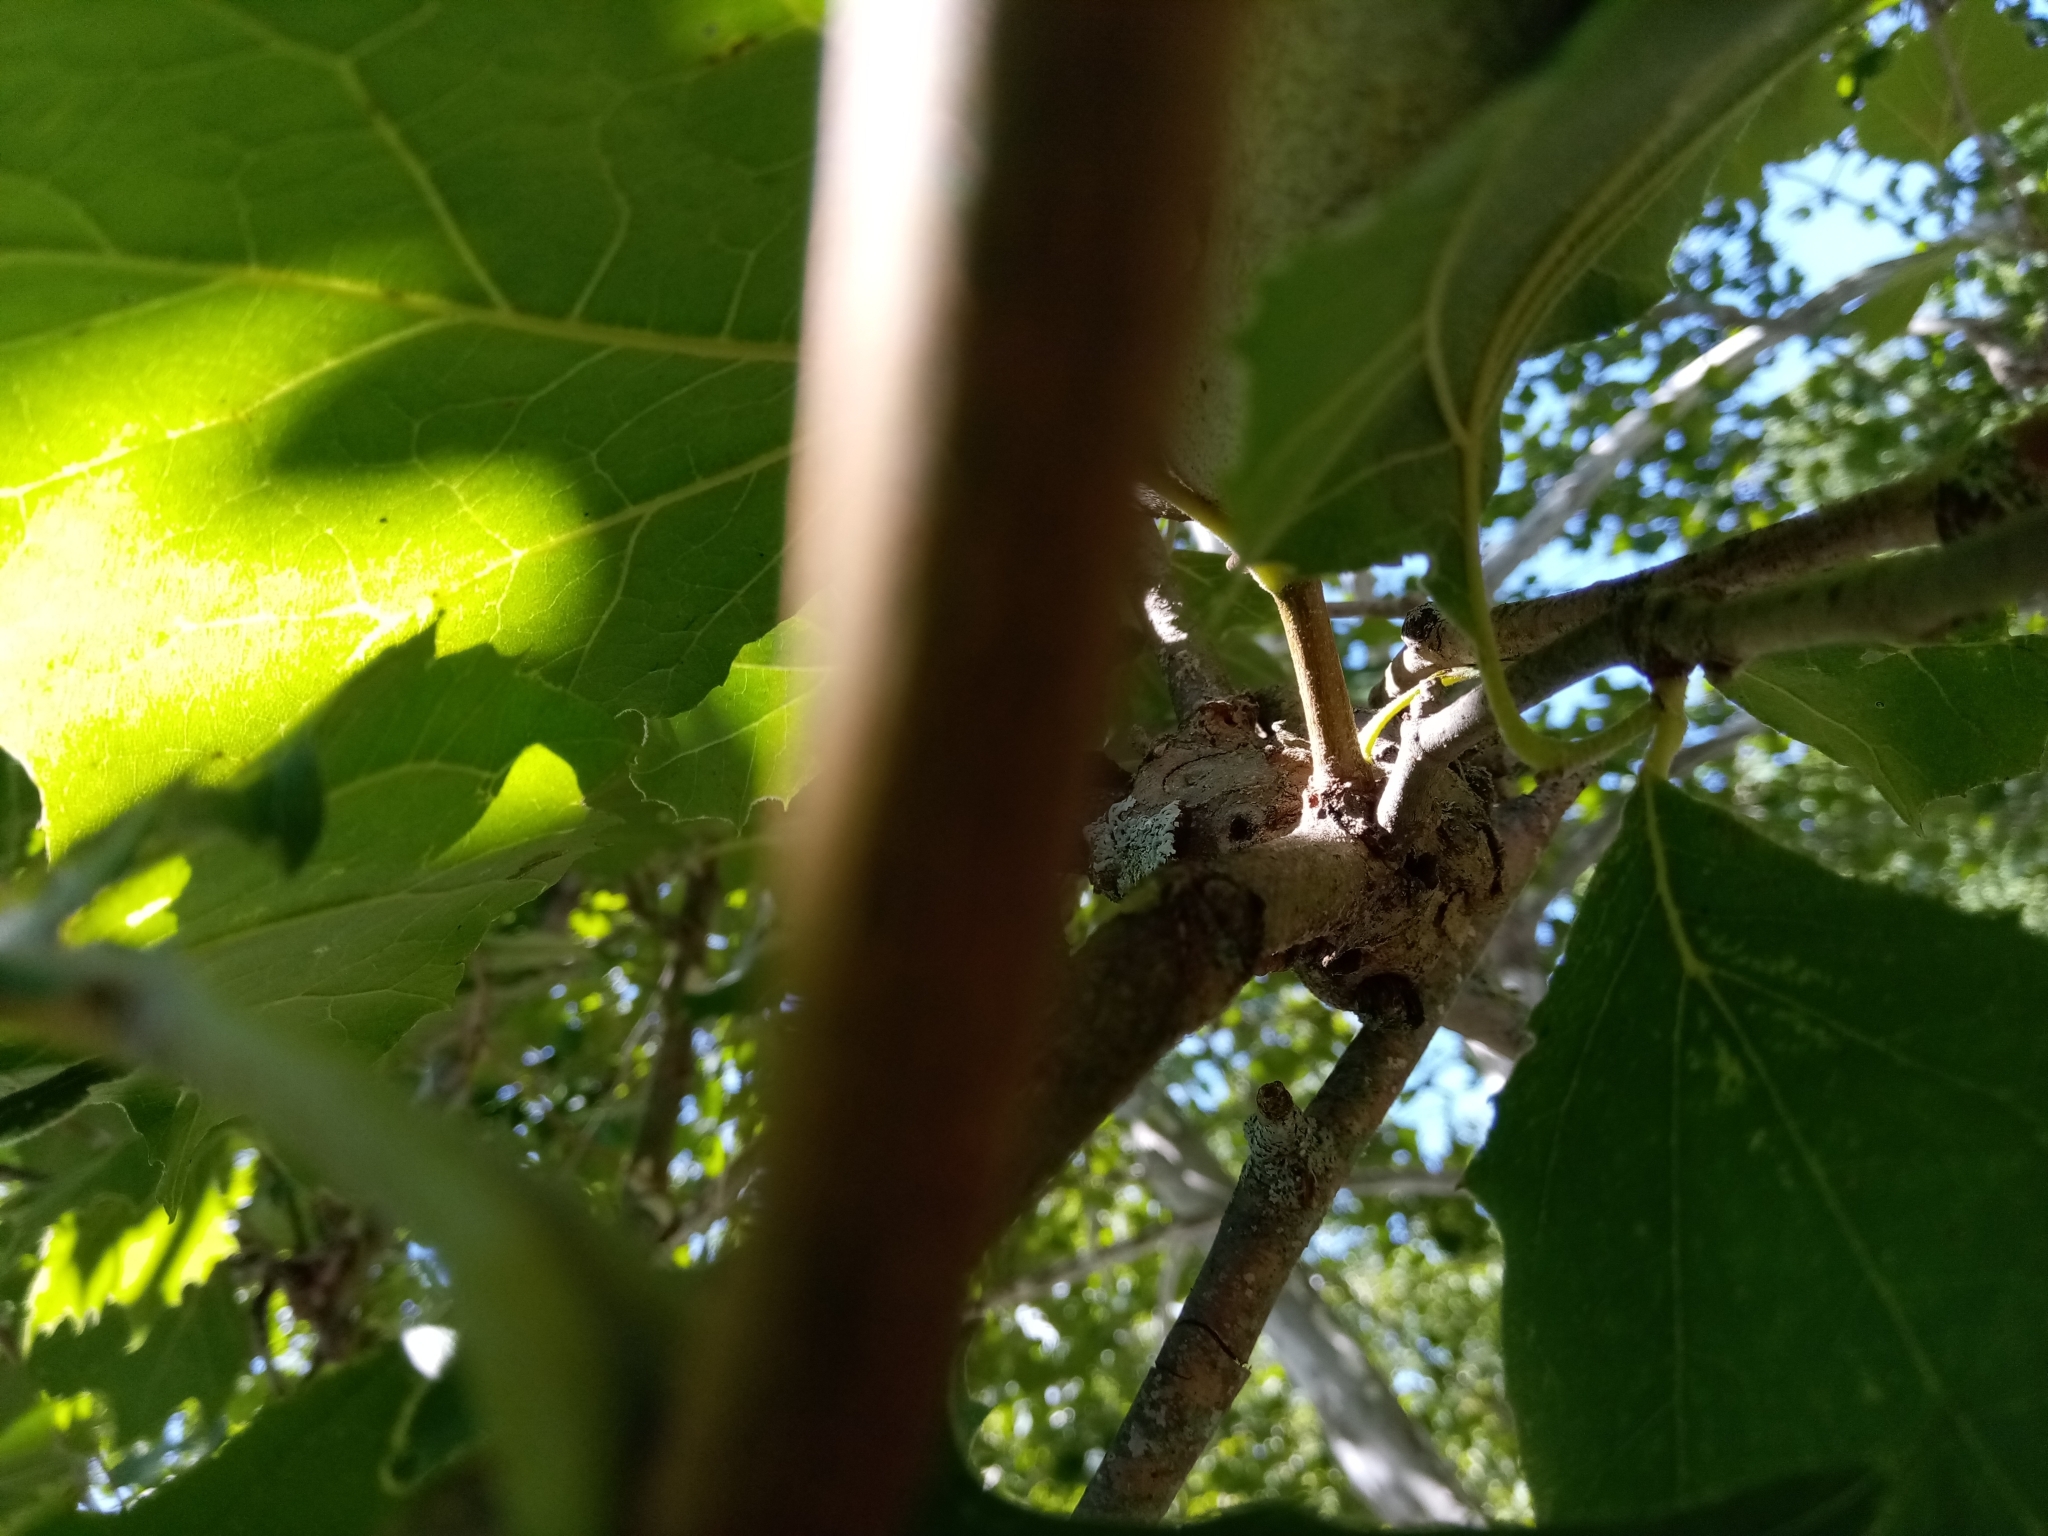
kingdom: Fungi
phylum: Ascomycota
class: Sordariomycetes
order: Diaporthales
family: Gnomoniaceae
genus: Apiognomonia
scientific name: Apiognomonia veneta
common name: Plane anthracnose
